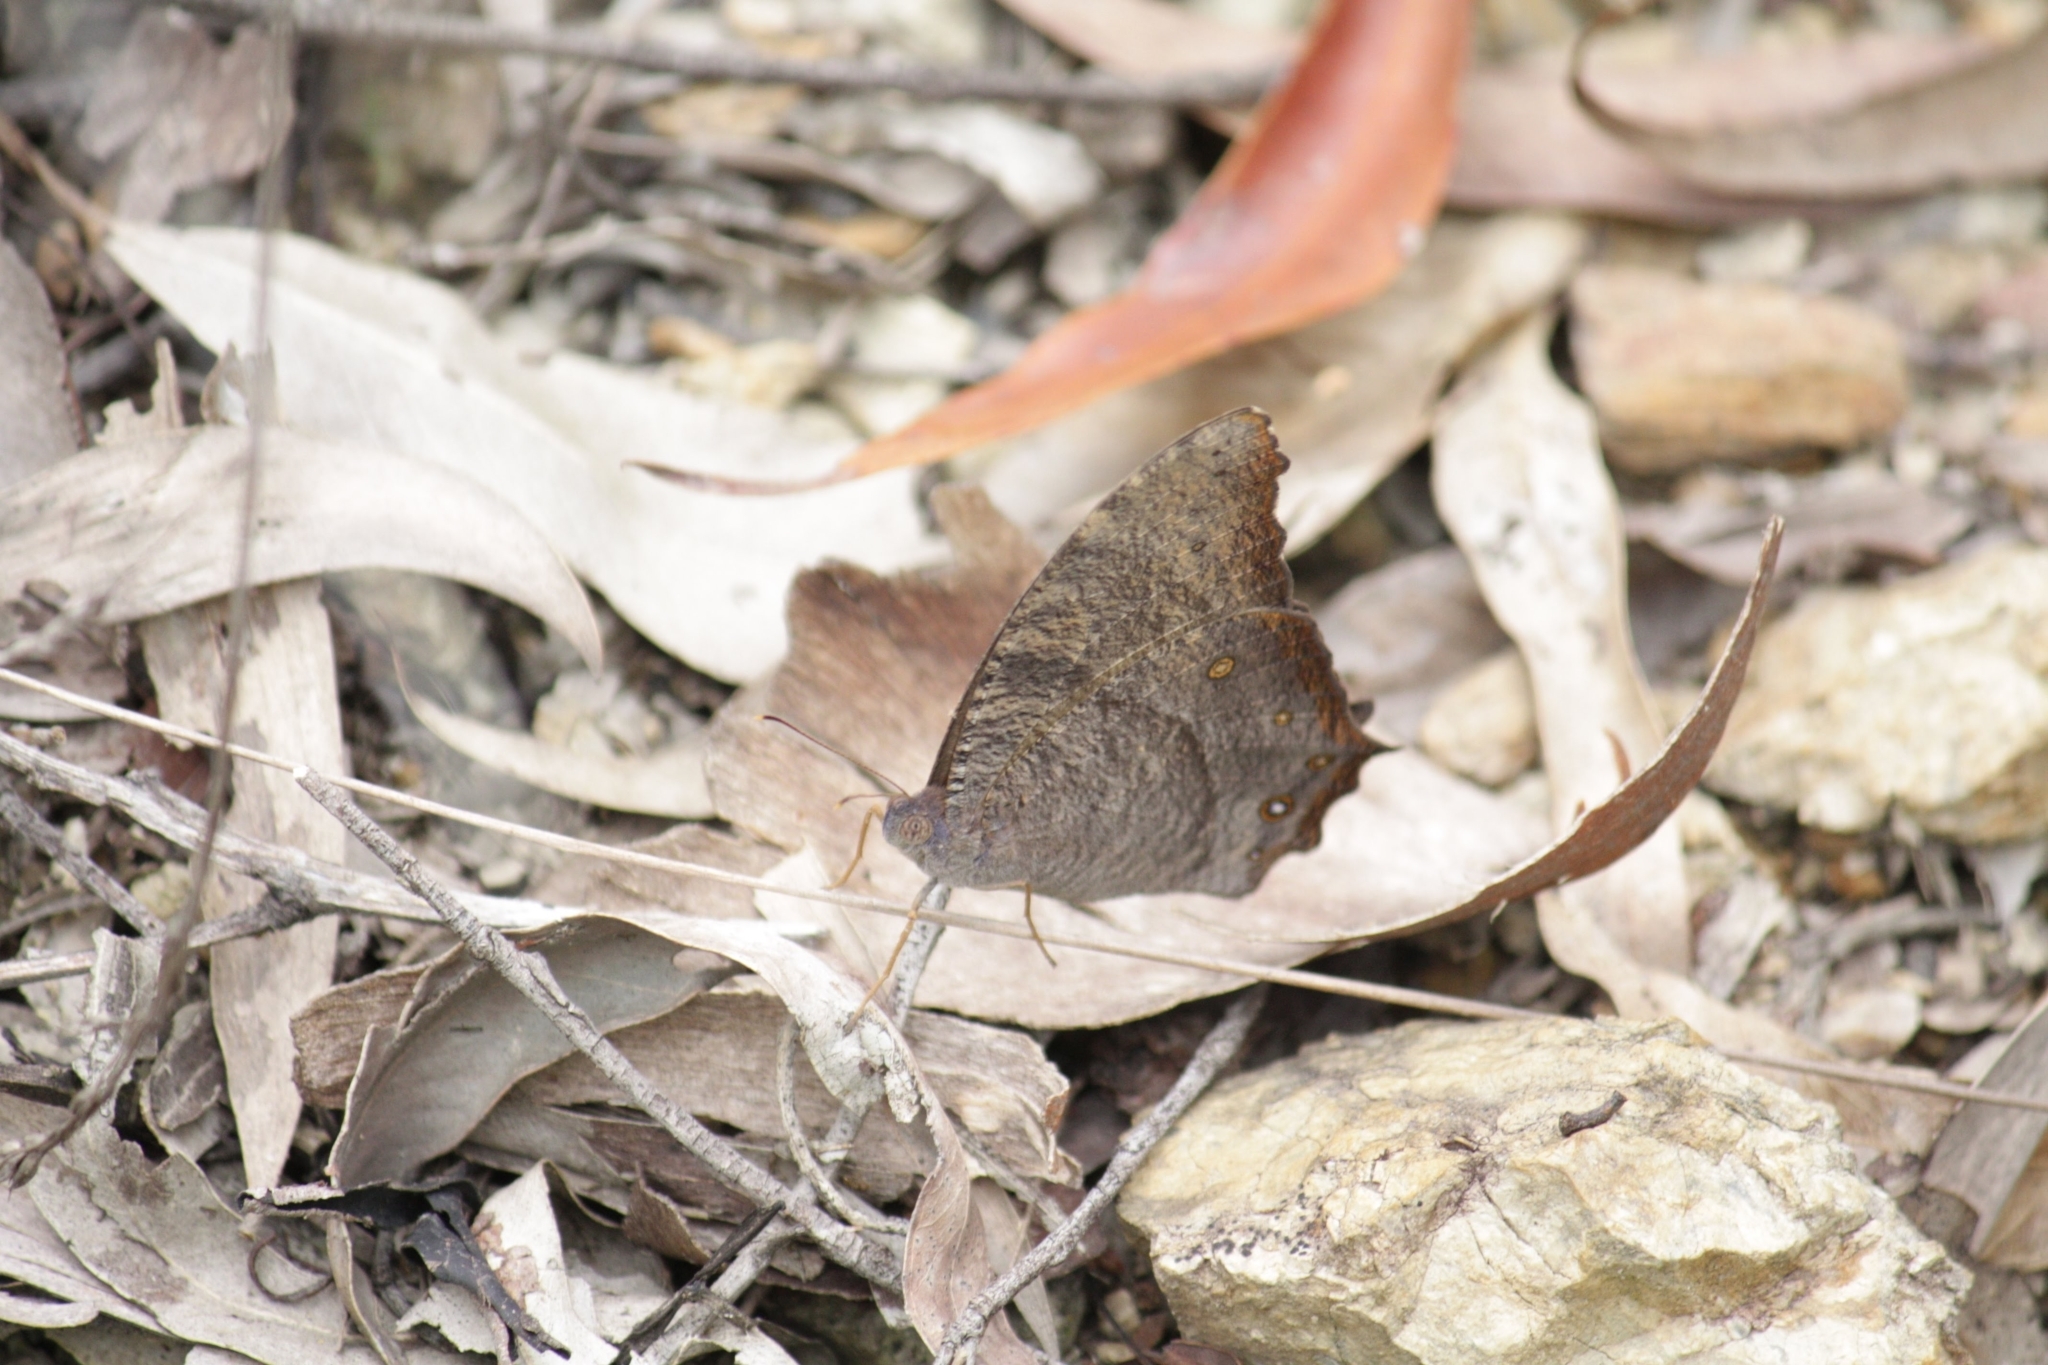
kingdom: Animalia
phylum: Arthropoda
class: Insecta
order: Lepidoptera
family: Nymphalidae
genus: Melanitis
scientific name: Melanitis leda
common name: Twilight brown
